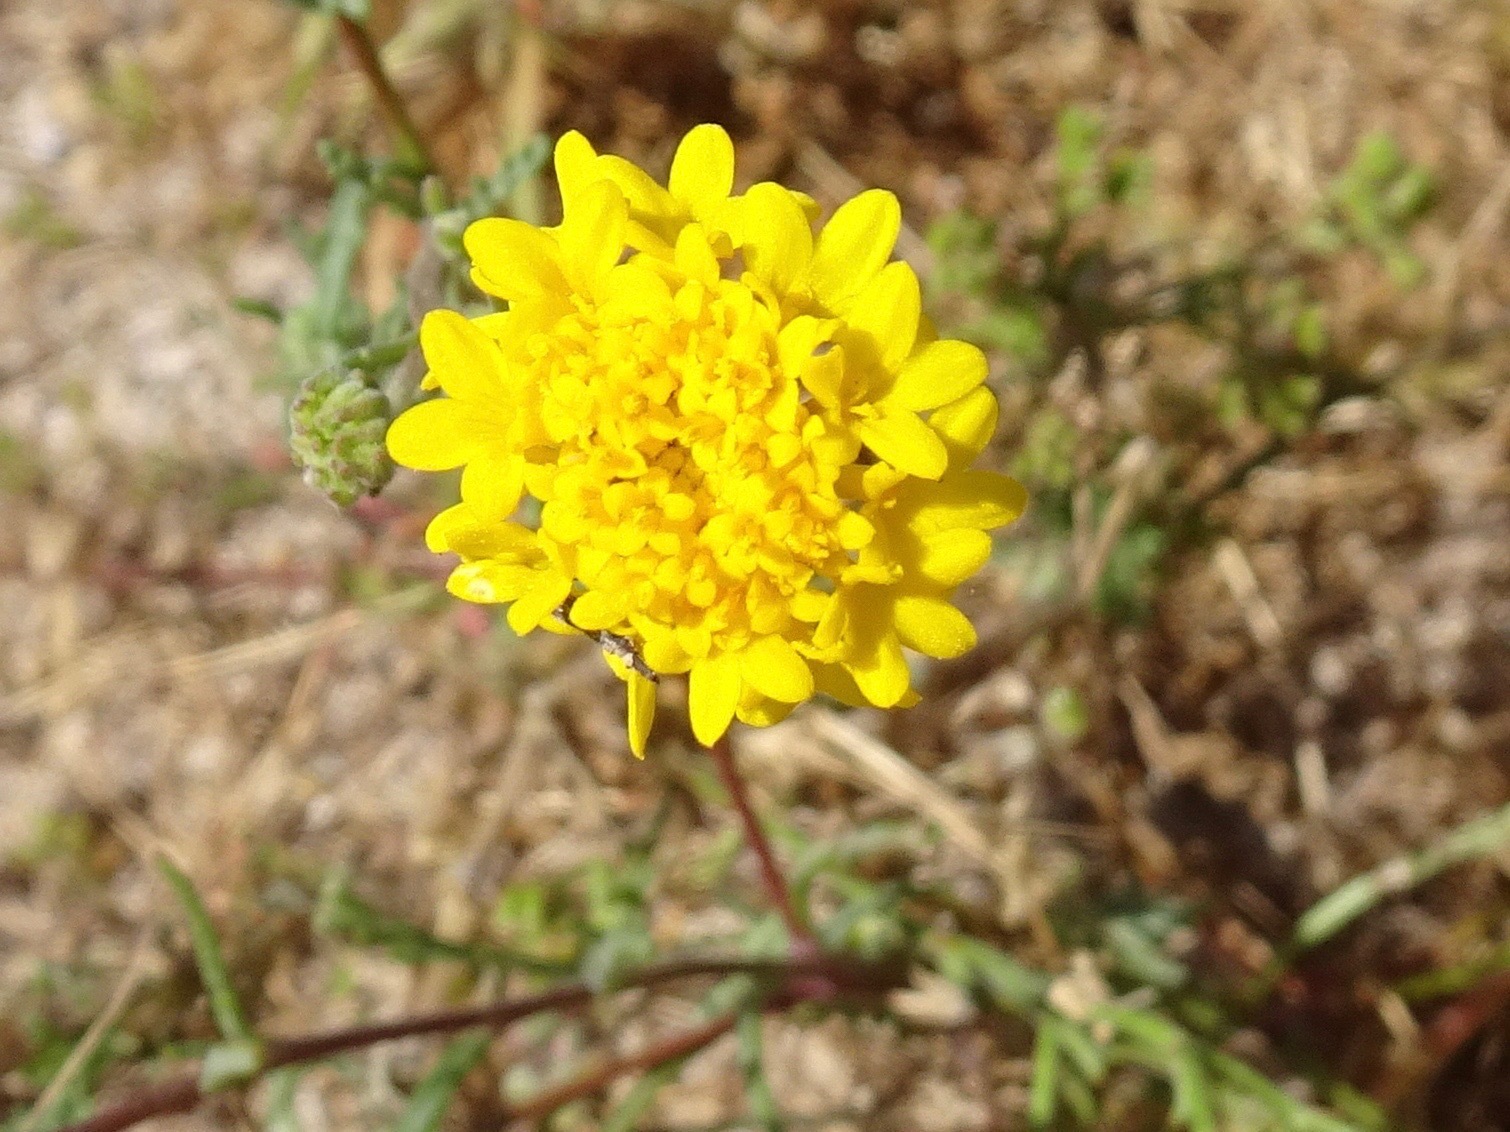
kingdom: Plantae
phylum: Tracheophyta
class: Magnoliopsida
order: Asterales
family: Asteraceae
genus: Chaenactis
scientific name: Chaenactis glabriuscula
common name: Yellow pincushion
